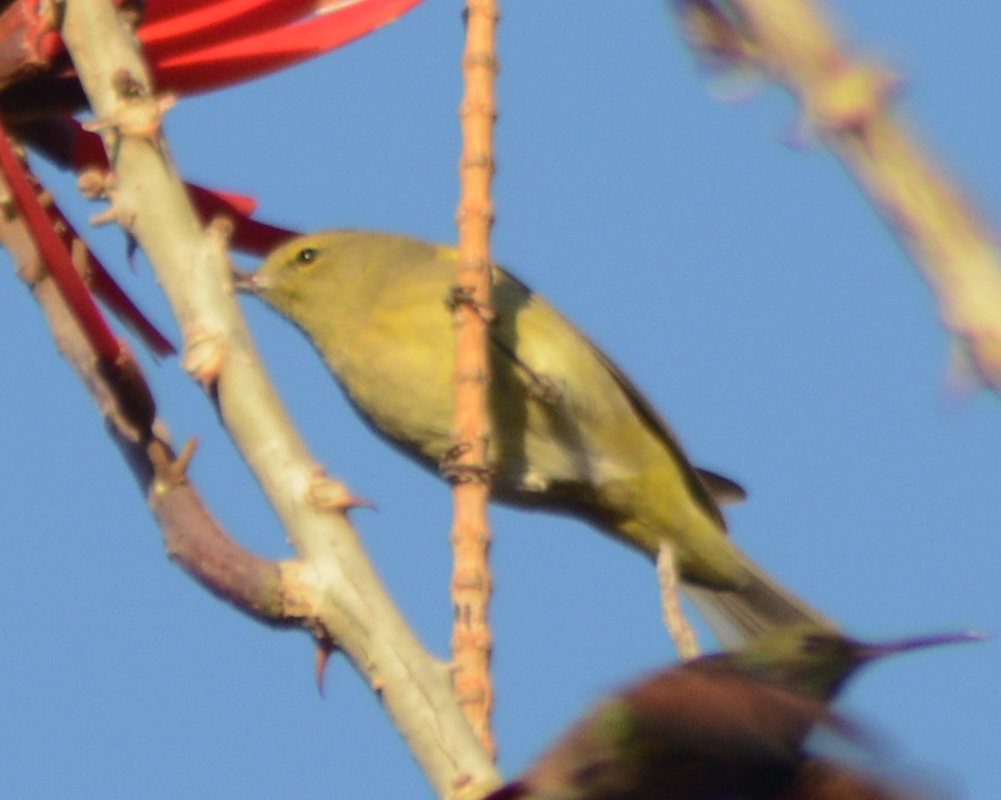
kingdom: Animalia
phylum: Chordata
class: Aves
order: Passeriformes
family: Parulidae
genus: Leiothlypis
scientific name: Leiothlypis celata
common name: Orange-crowned warbler
